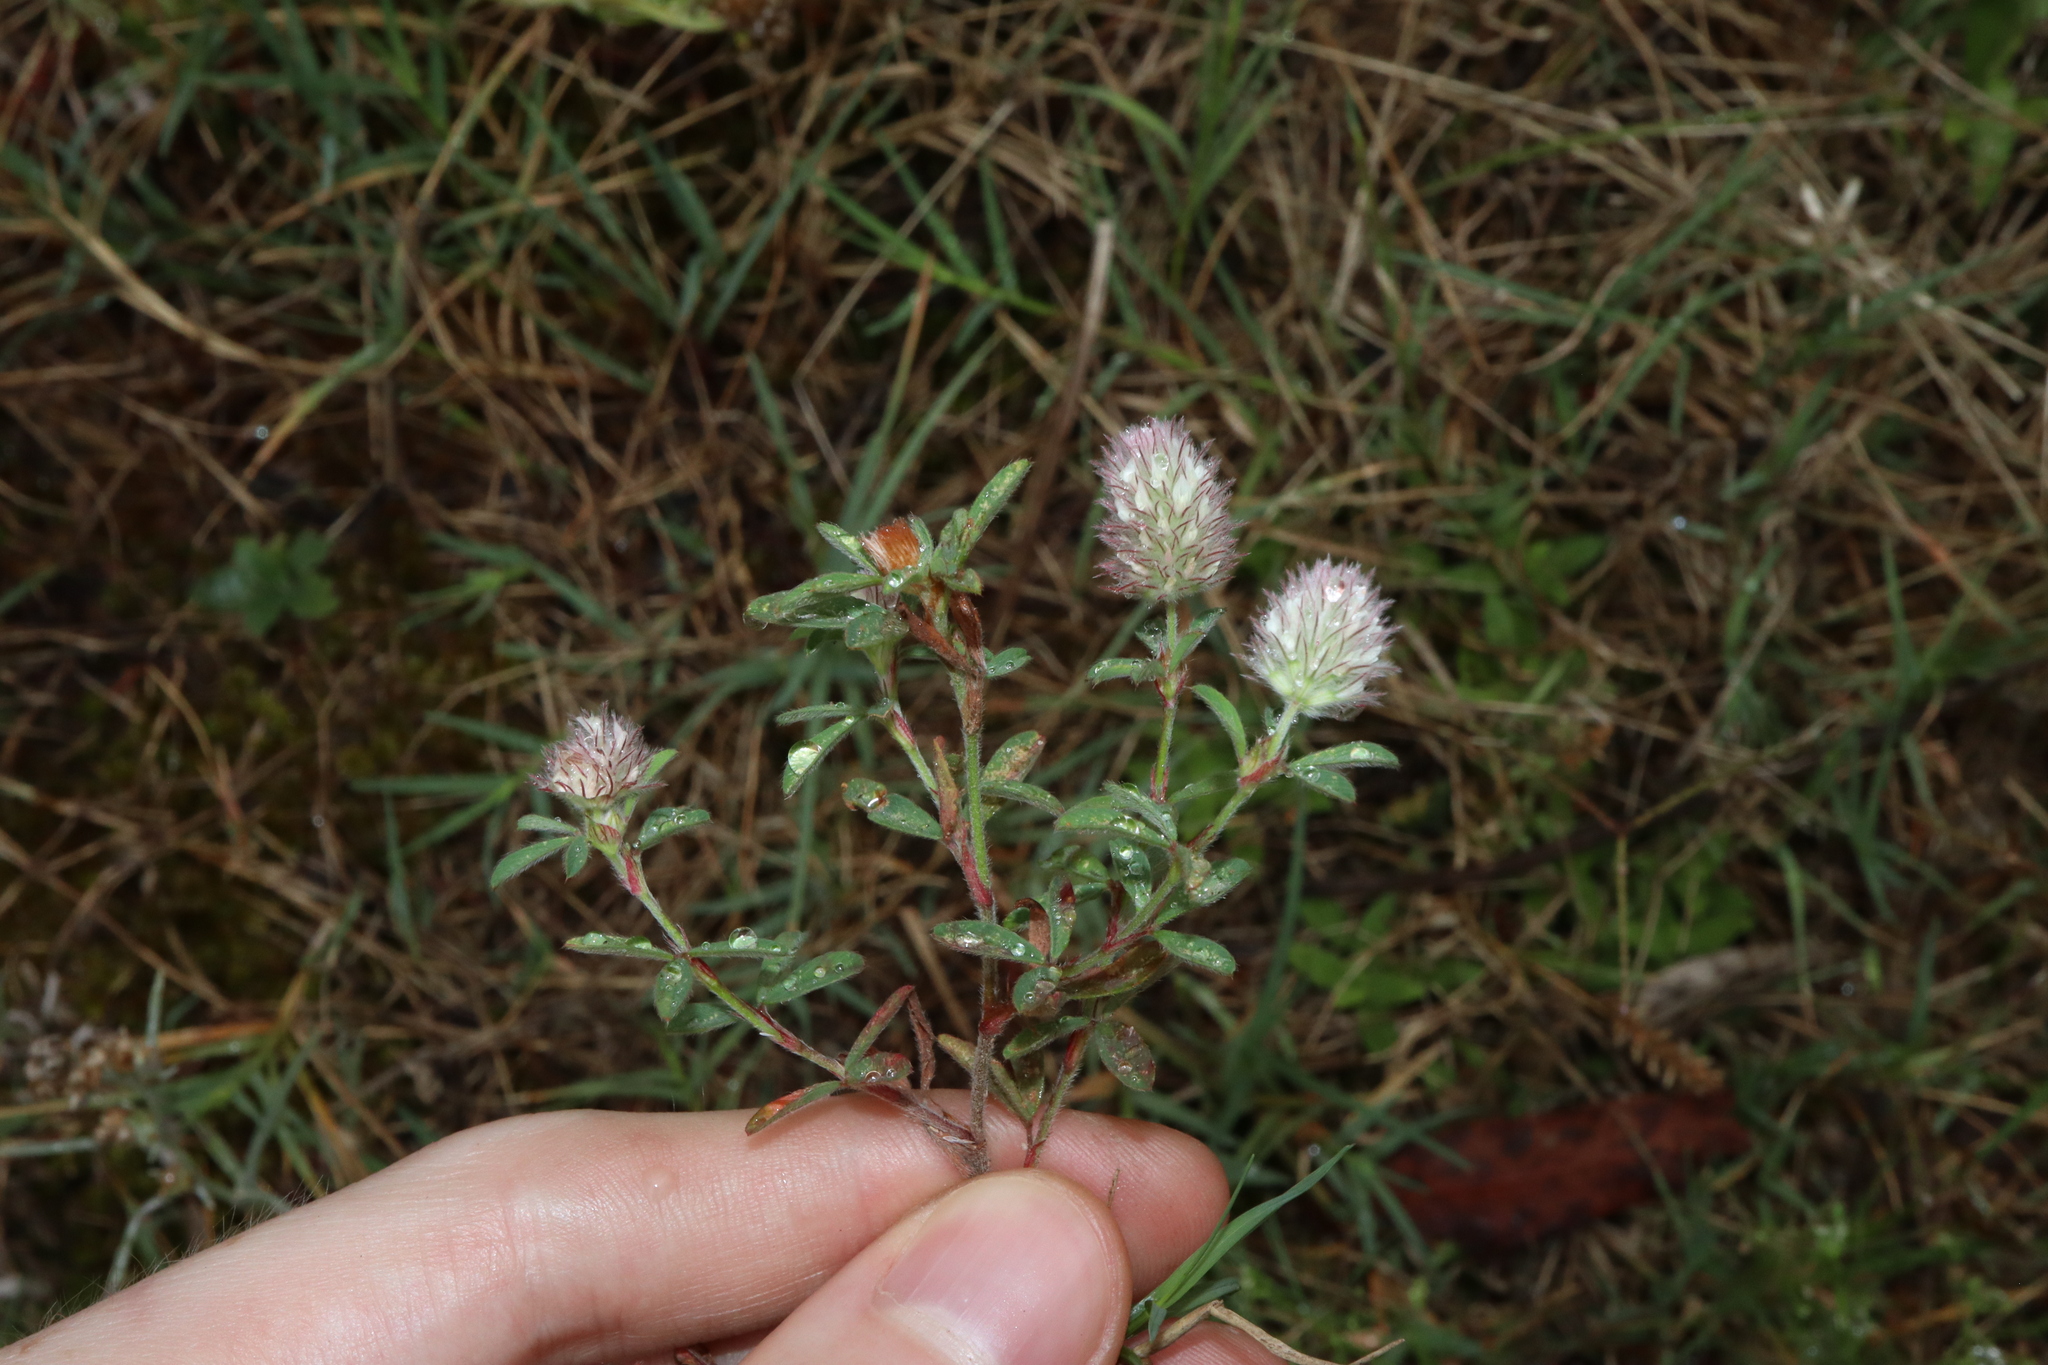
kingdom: Plantae
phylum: Tracheophyta
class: Magnoliopsida
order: Fabales
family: Fabaceae
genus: Trifolium
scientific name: Trifolium arvense
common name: Hare's-foot clover
